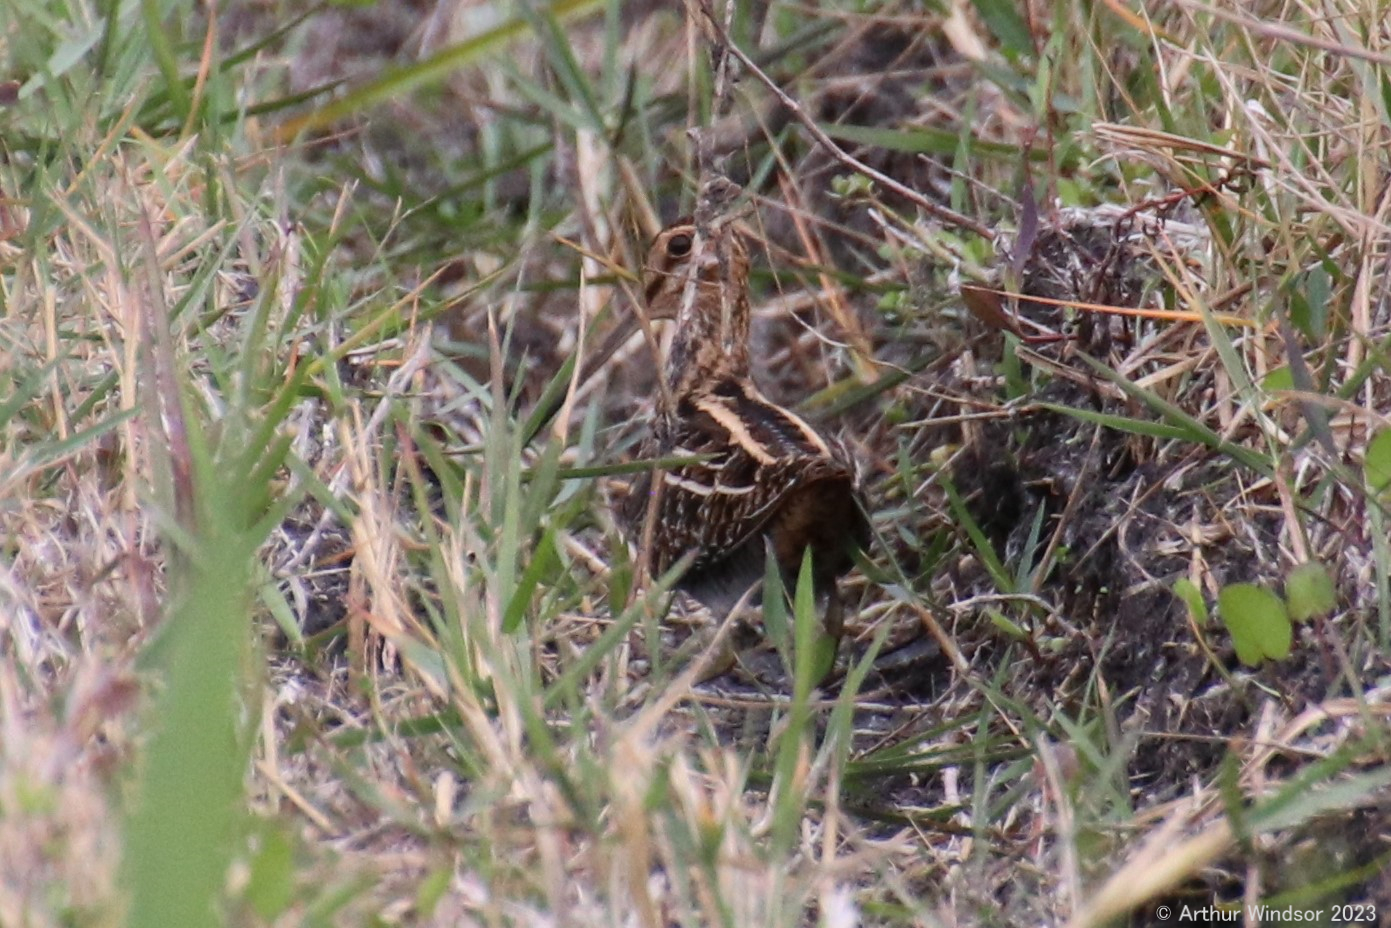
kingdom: Animalia
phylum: Chordata
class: Aves
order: Charadriiformes
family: Scolopacidae
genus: Gallinago
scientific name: Gallinago delicata
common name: Wilson's snipe
